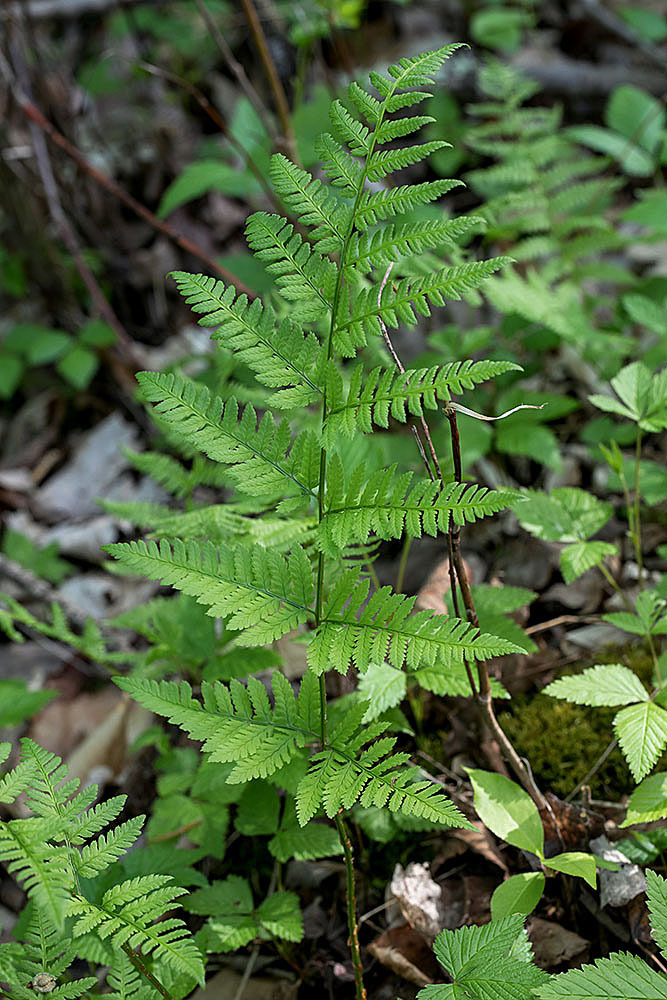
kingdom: Plantae
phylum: Tracheophyta
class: Polypodiopsida
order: Polypodiales
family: Dryopteridaceae
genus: Dryopteris
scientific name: Dryopteris carthusiana
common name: Narrow buckler-fern
